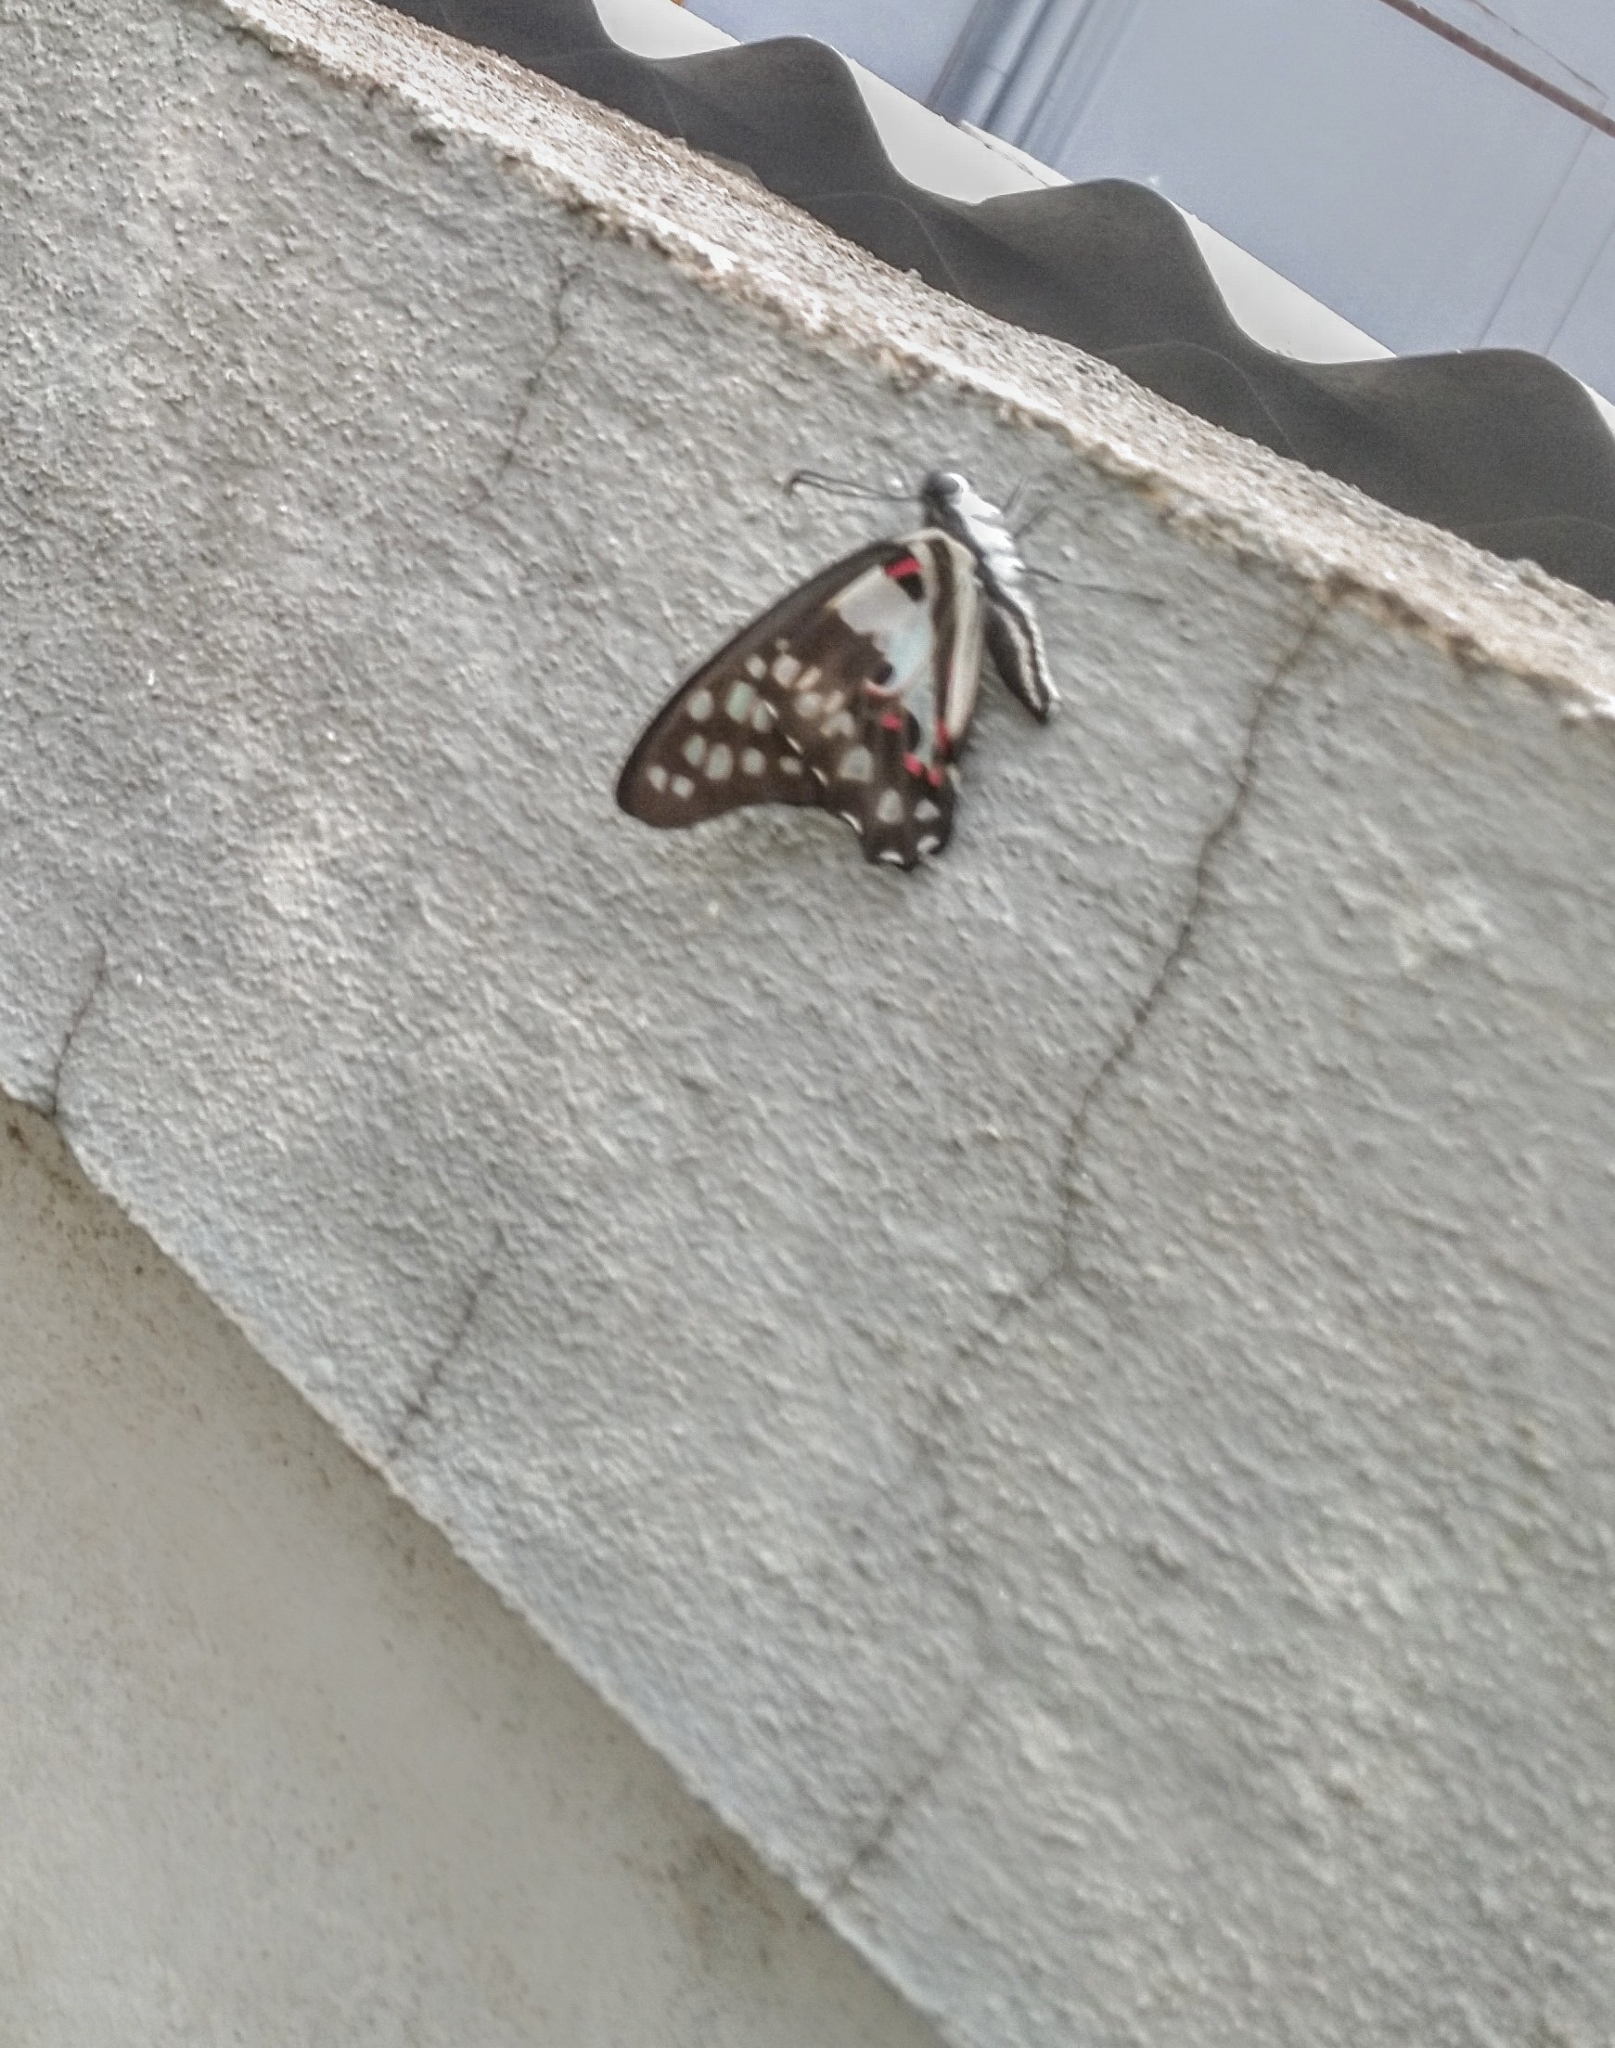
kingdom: Animalia
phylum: Arthropoda
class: Insecta
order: Lepidoptera
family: Papilionidae
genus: Graphium
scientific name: Graphium doson
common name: Common jay
